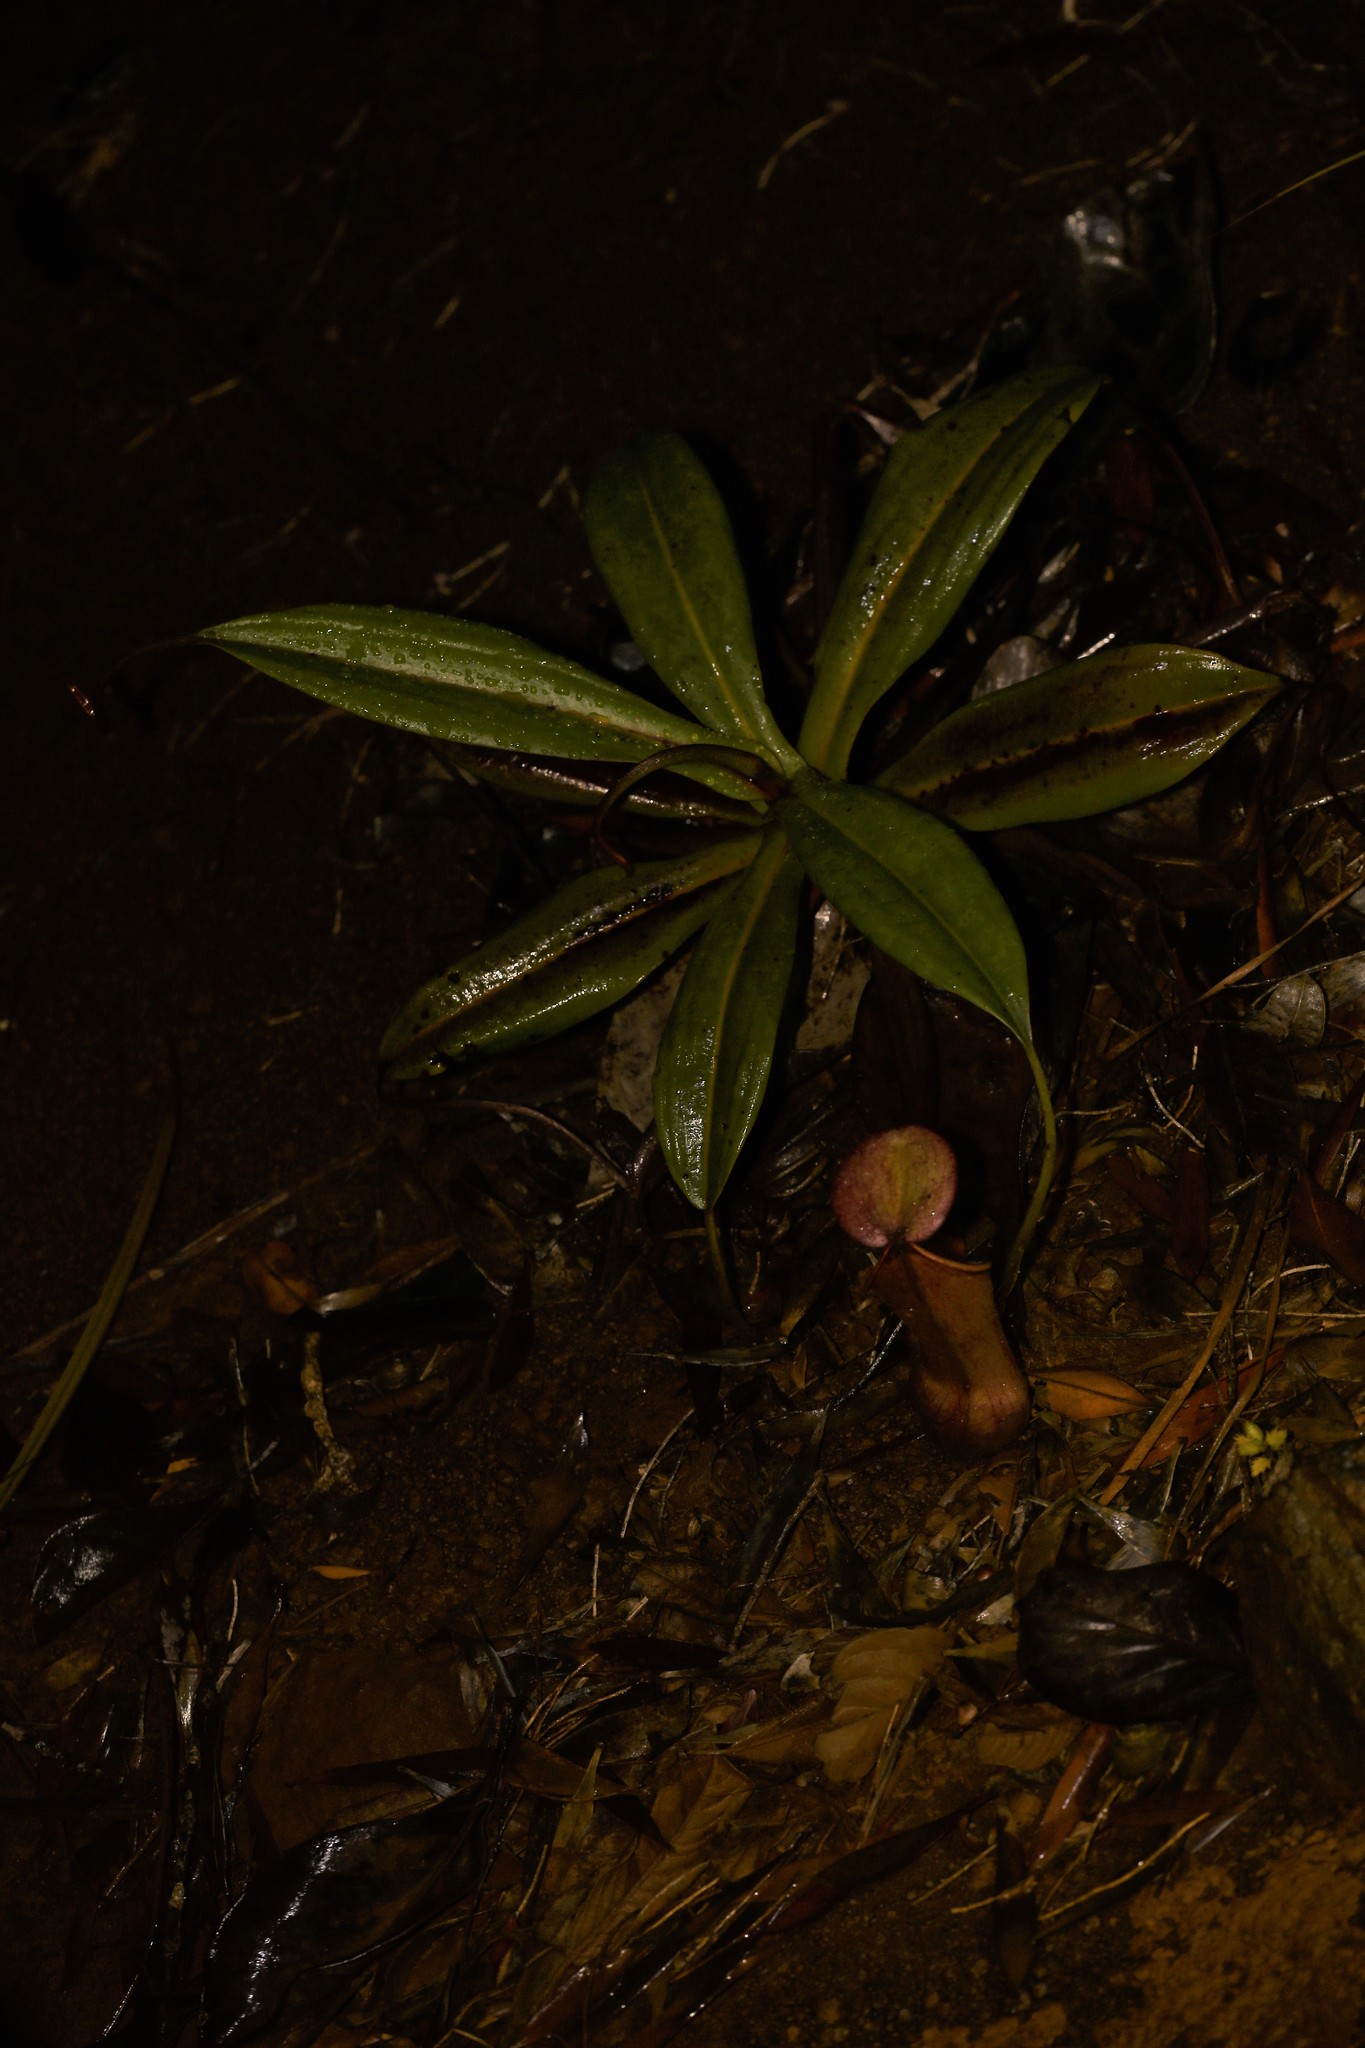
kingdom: Plantae
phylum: Tracheophyta
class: Magnoliopsida
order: Caryophyllales
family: Nepenthaceae
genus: Nepenthes
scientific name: Nepenthes vieillardii
